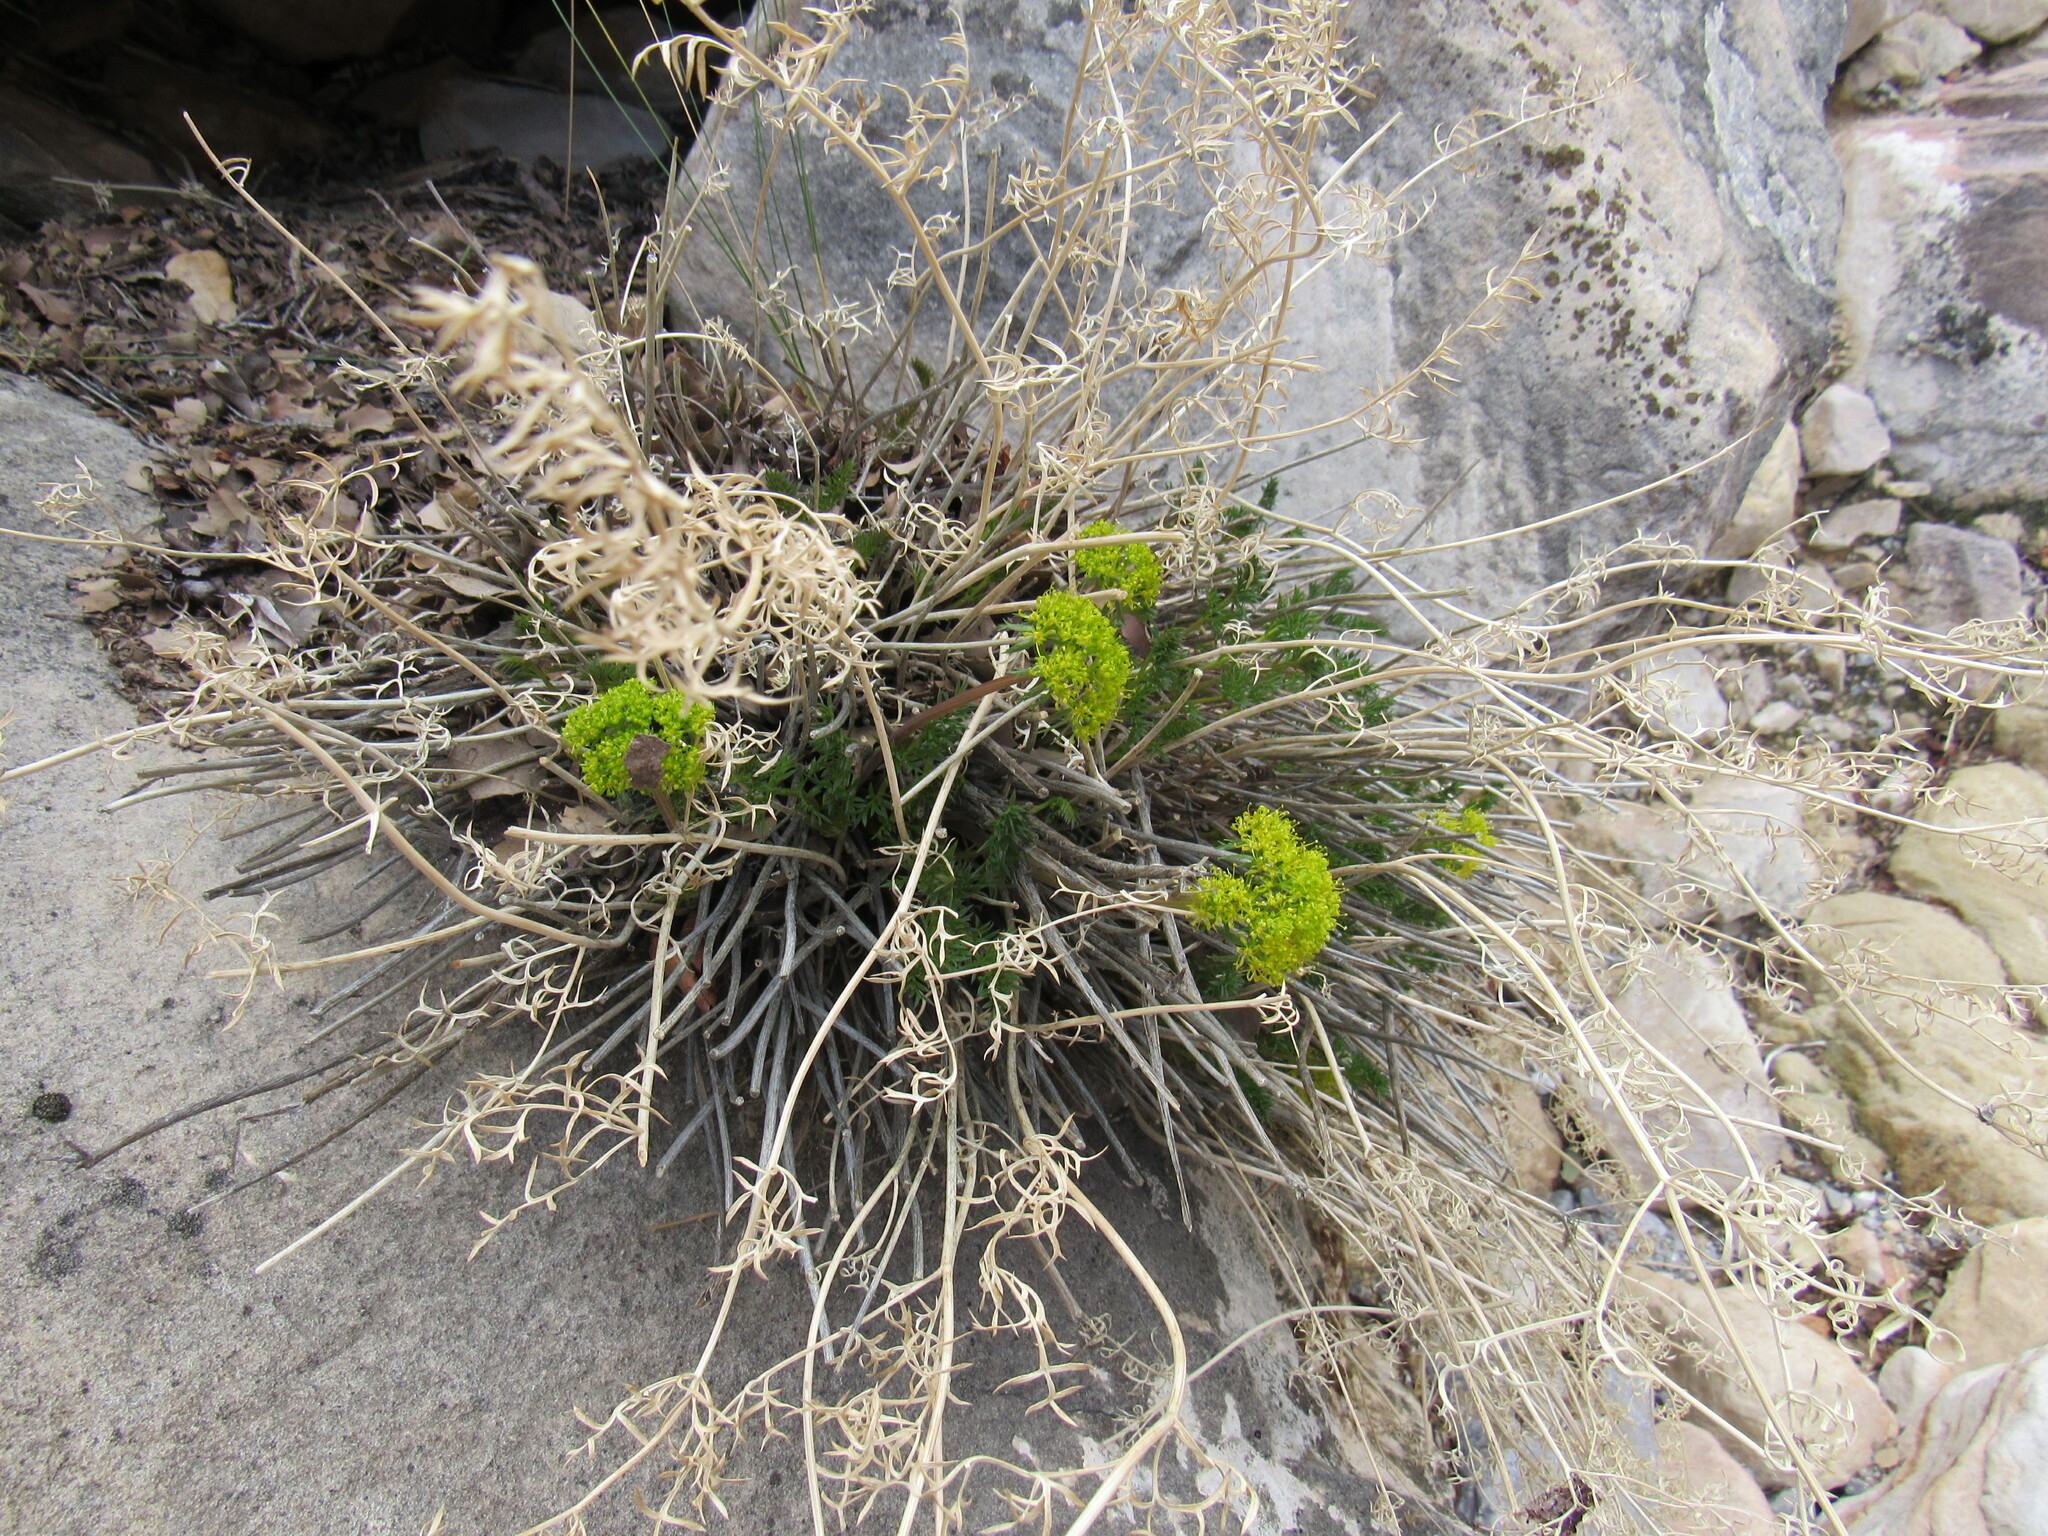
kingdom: Plantae
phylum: Tracheophyta
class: Magnoliopsida
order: Apiales
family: Apiaceae
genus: Lomatium
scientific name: Lomatium parryi
